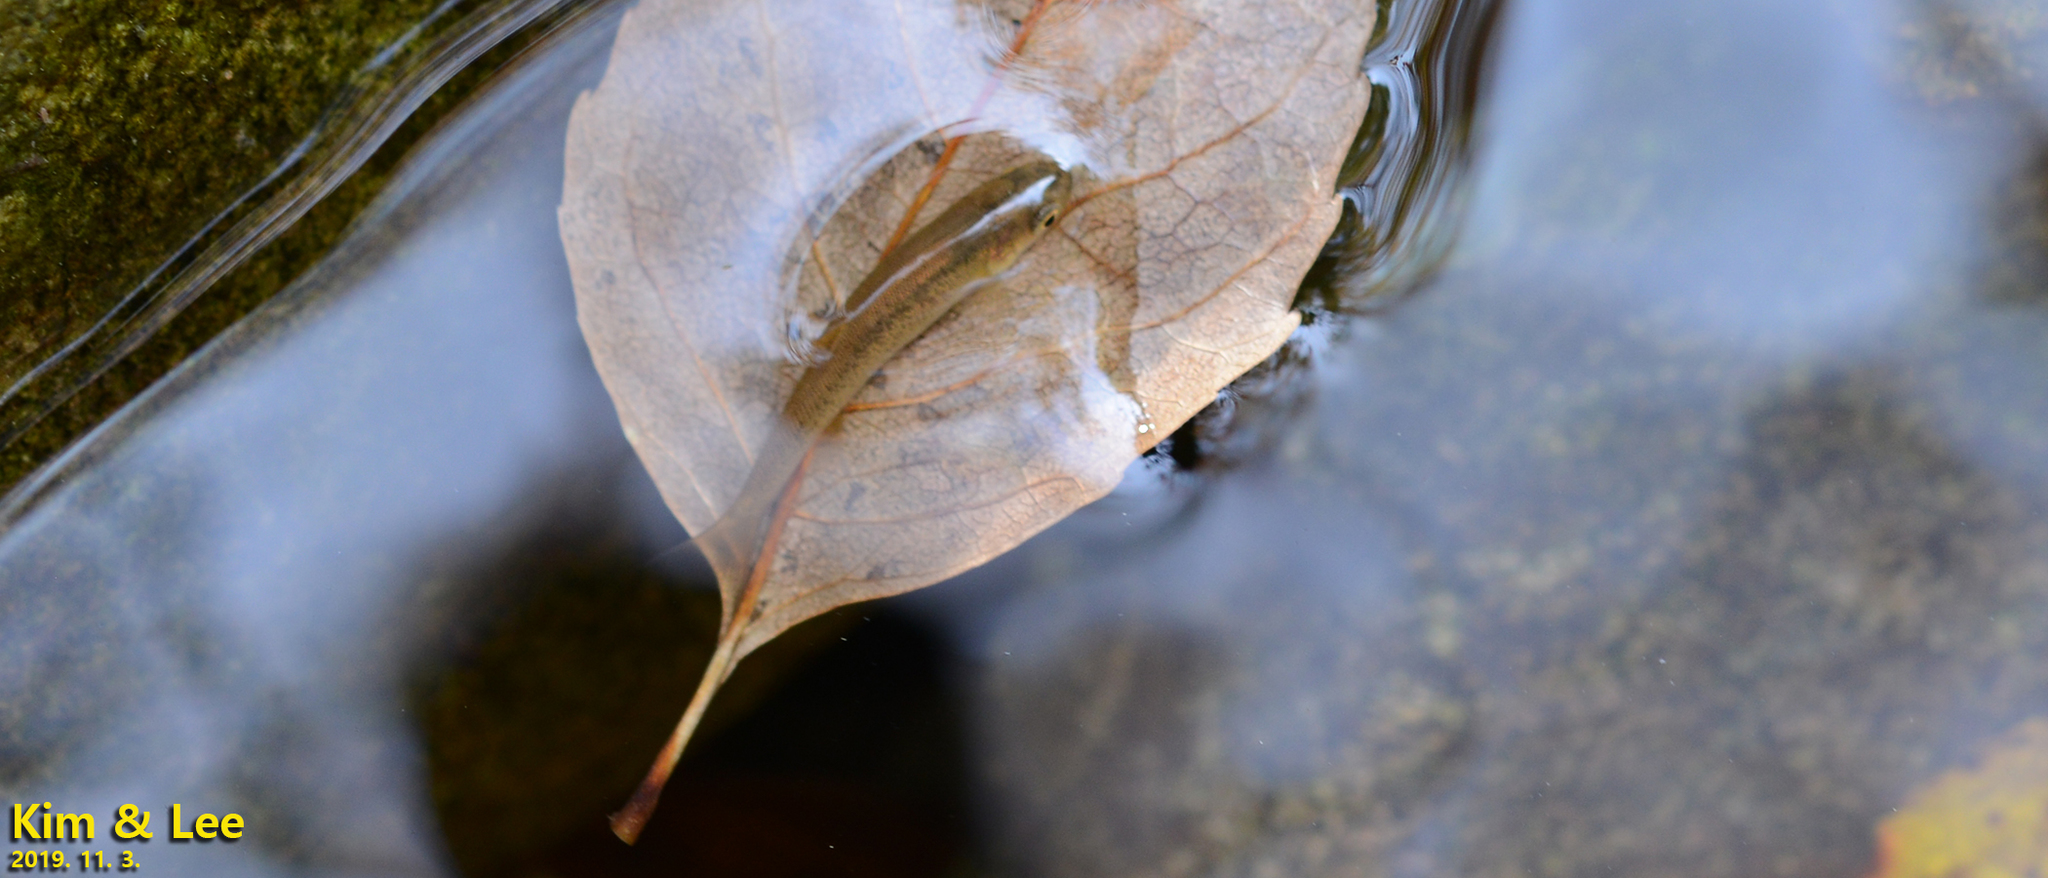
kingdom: Animalia
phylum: Chordata
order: Cypriniformes
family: Cyprinidae
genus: Rhynchocypris
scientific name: Rhynchocypris oxycephalus
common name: Chinese minnow
